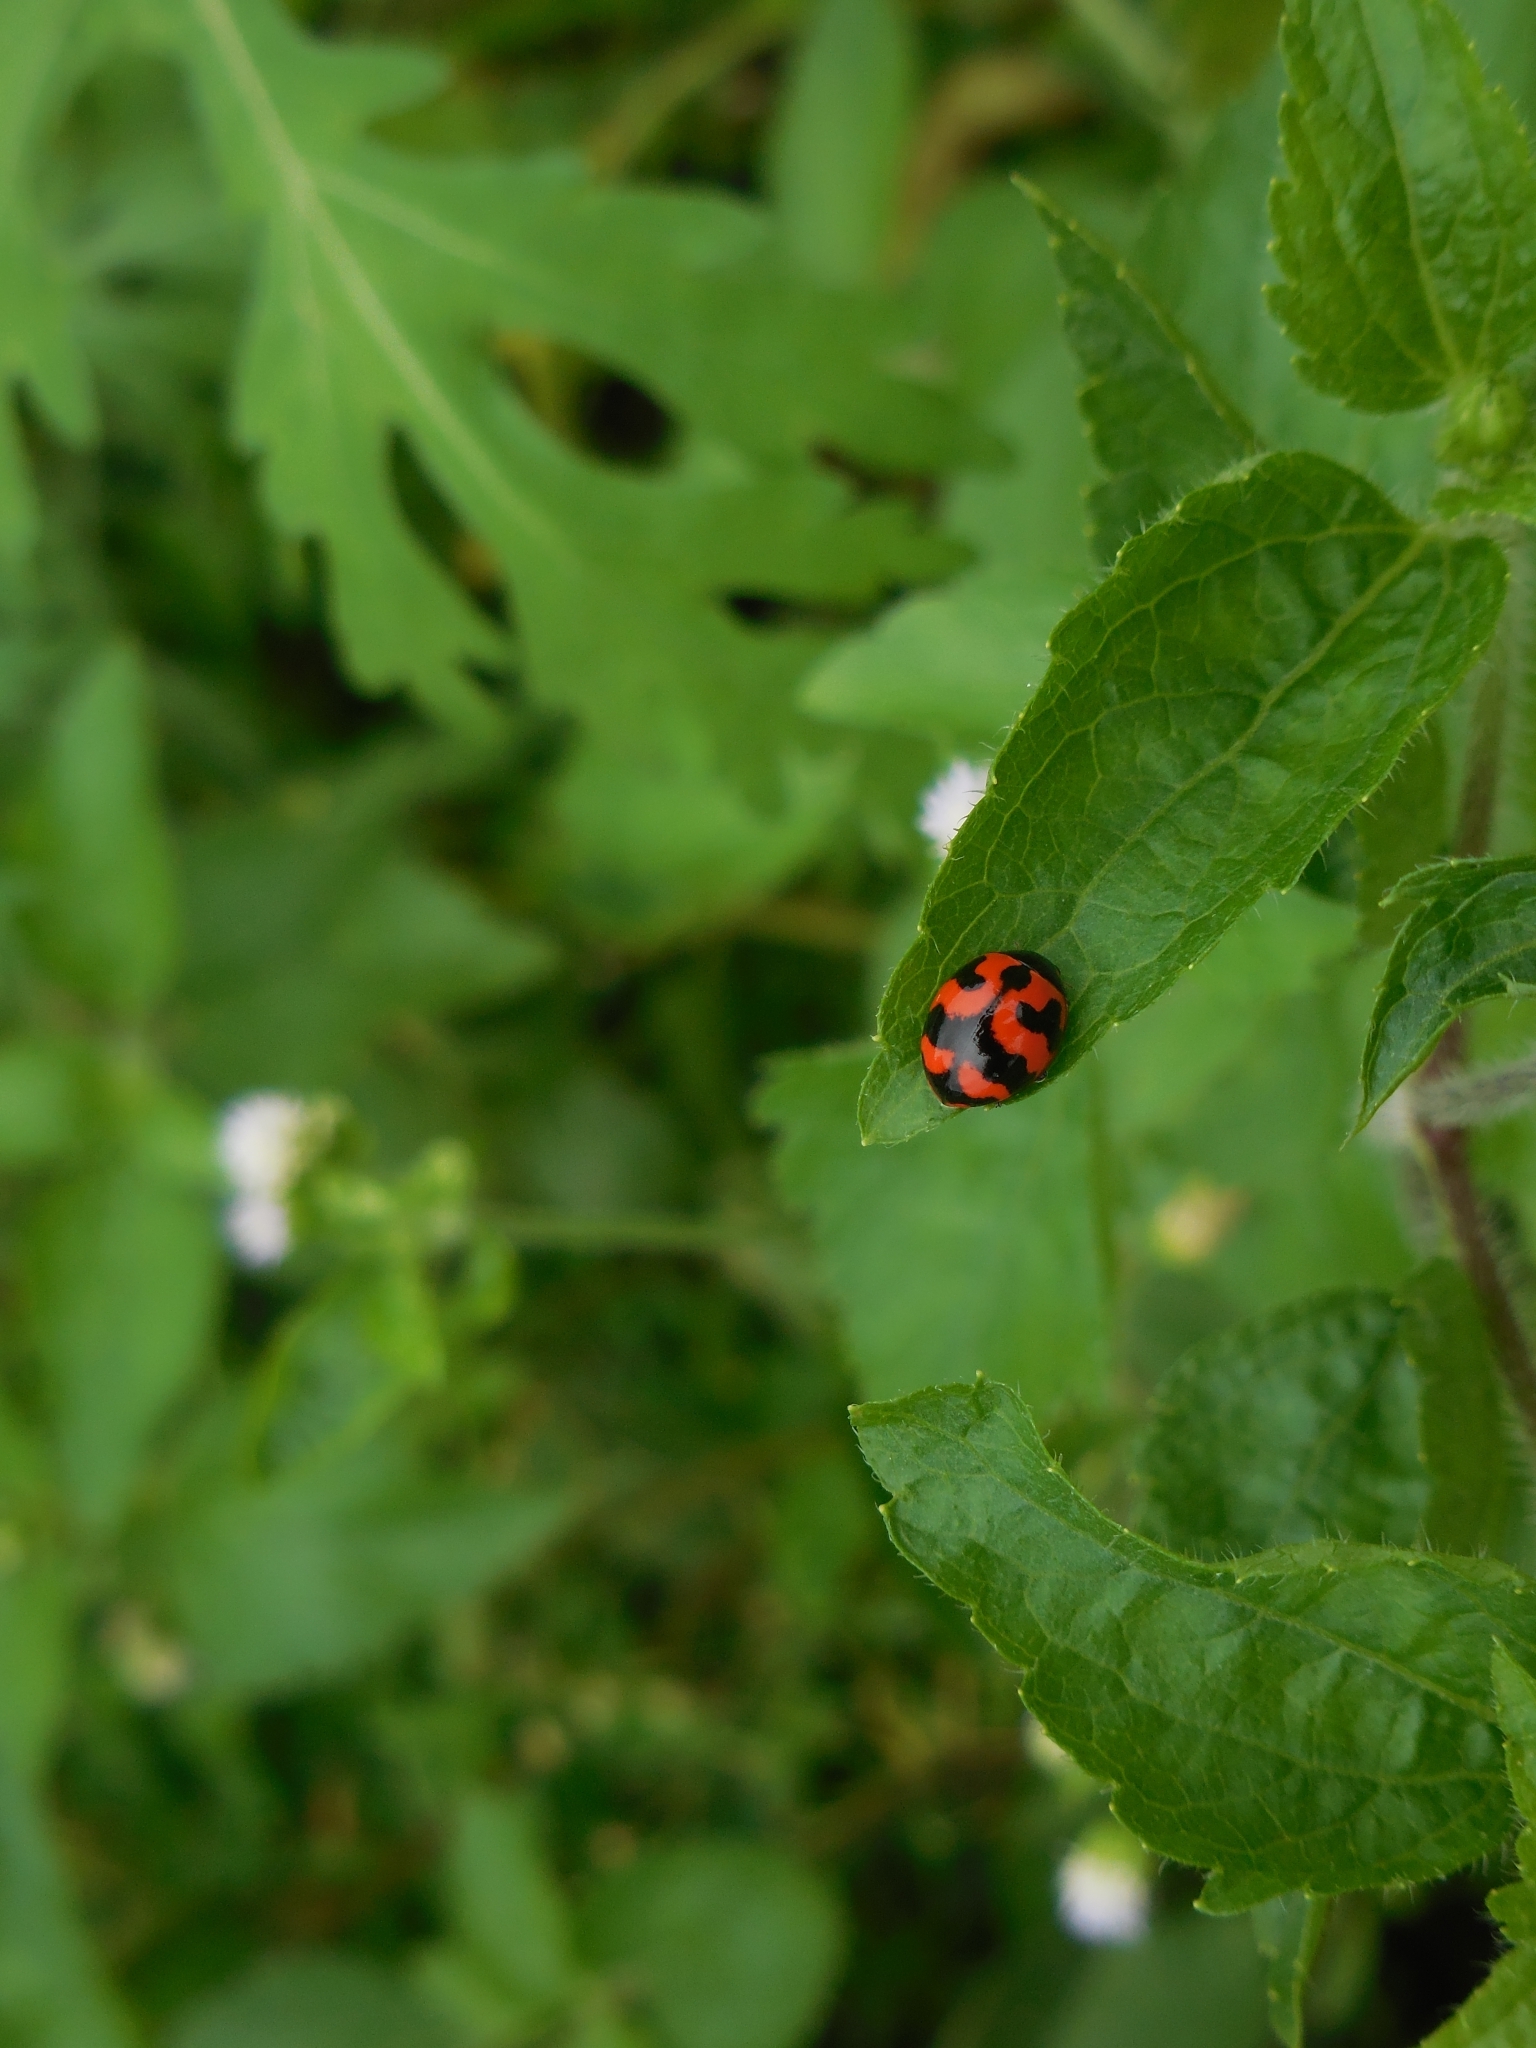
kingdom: Animalia
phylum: Arthropoda
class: Insecta
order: Coleoptera
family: Coccinellidae
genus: Coccinella
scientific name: Coccinella transversalis
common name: Transverse lady beetle
